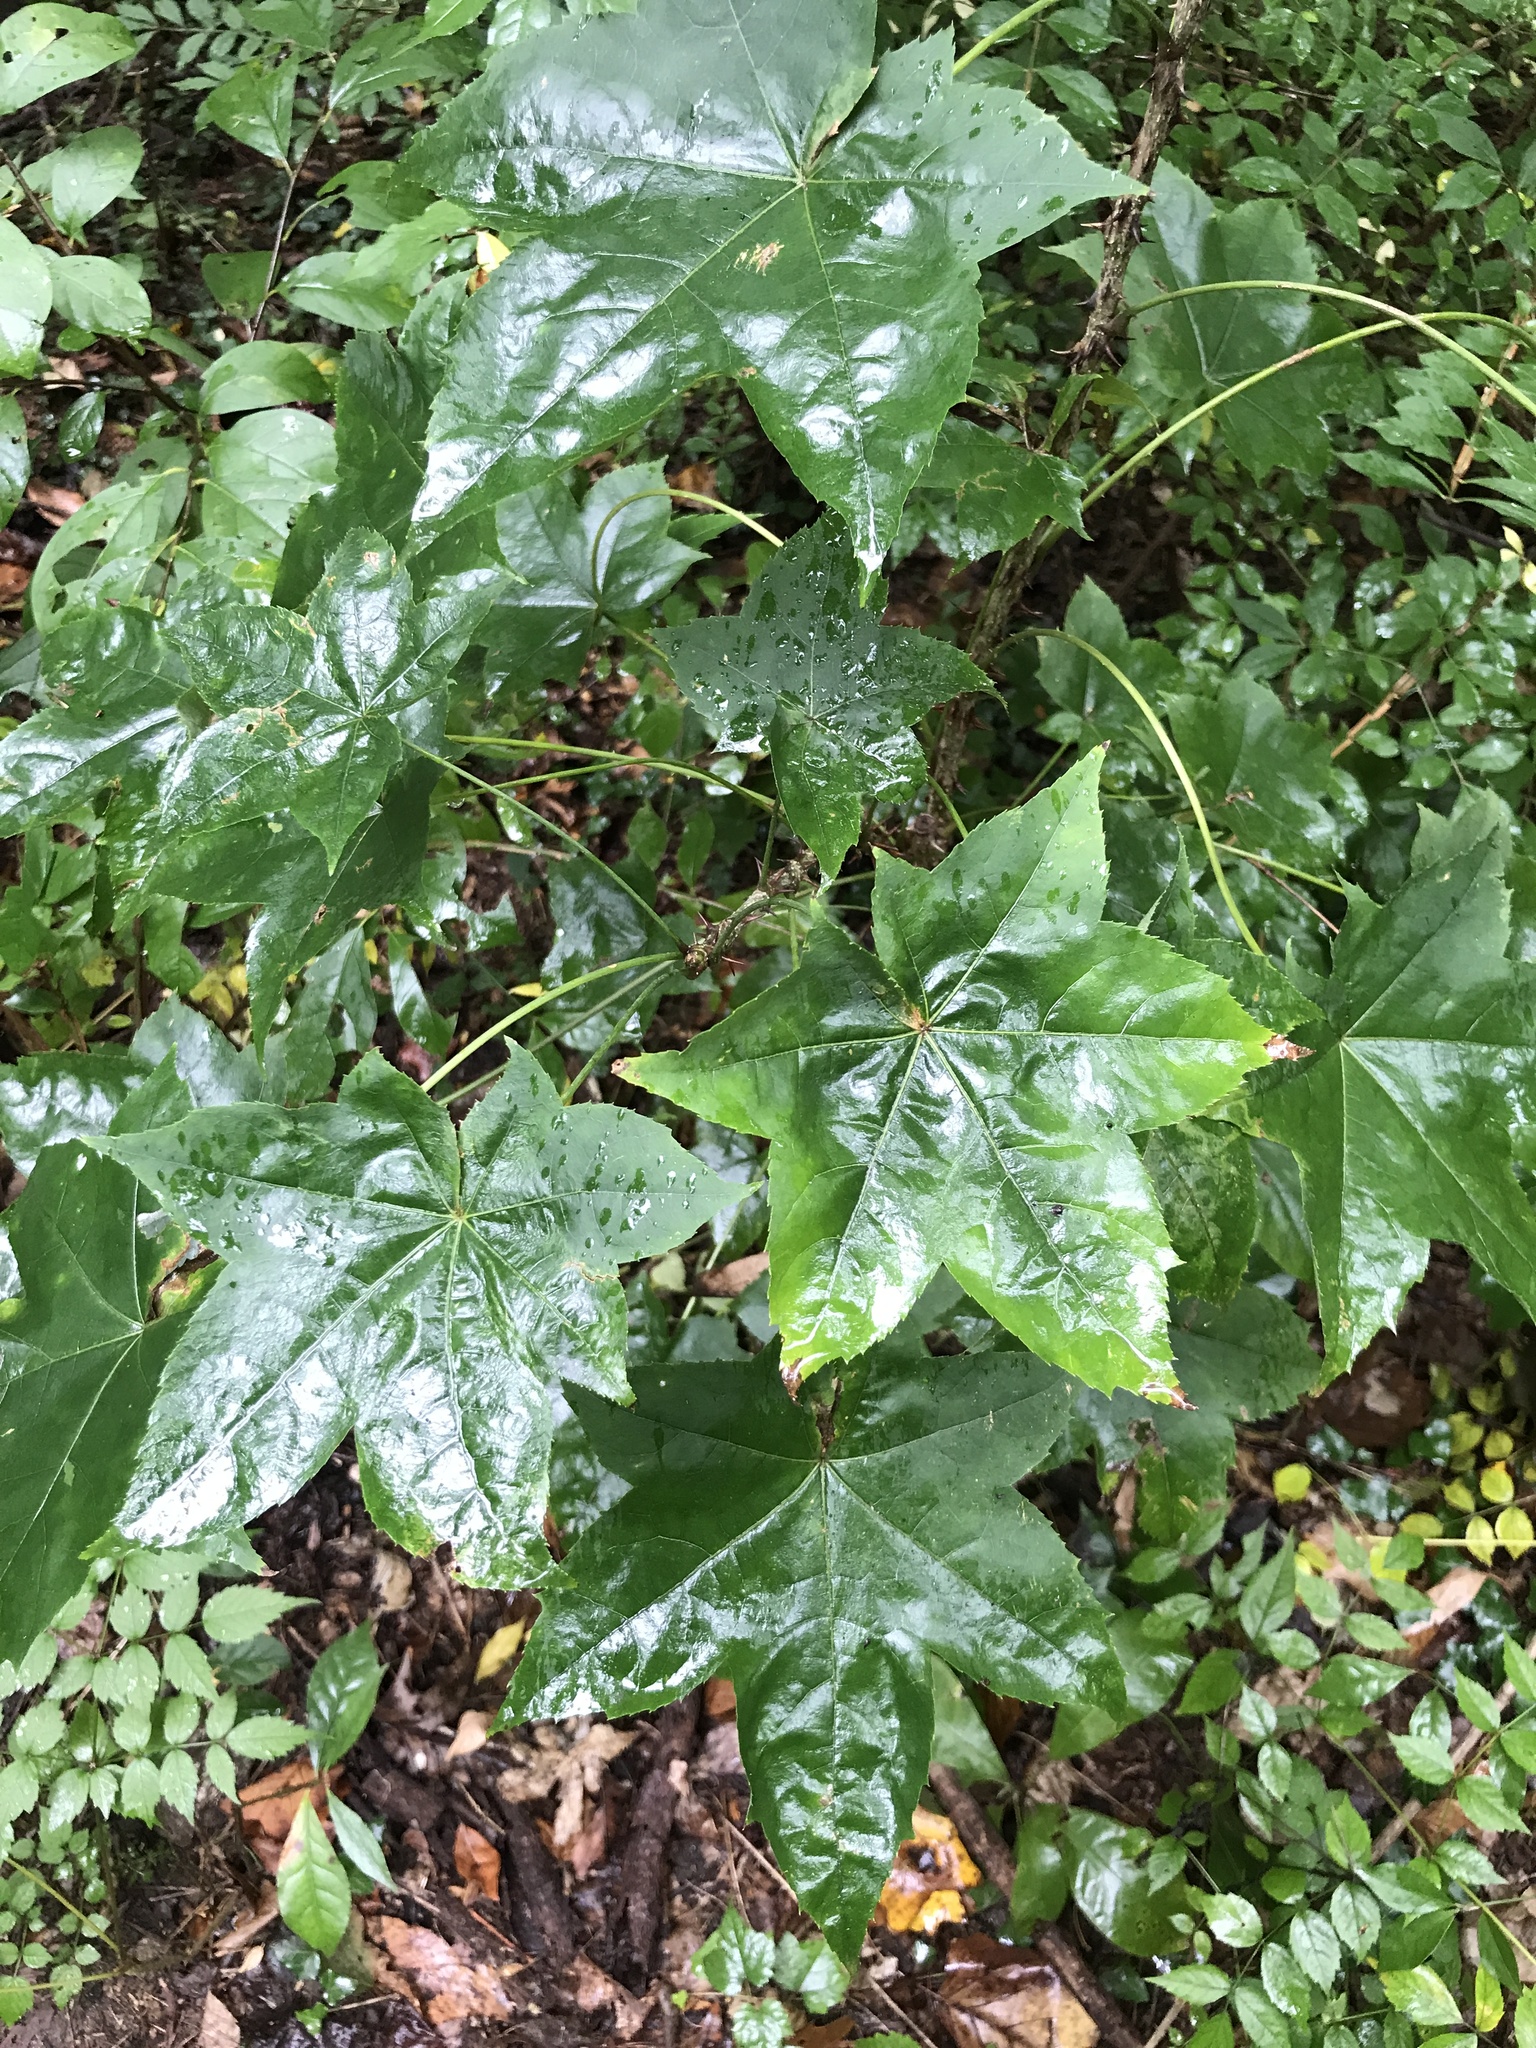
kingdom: Plantae
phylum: Tracheophyta
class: Magnoliopsida
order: Apiales
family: Araliaceae
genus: Kalopanax
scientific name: Kalopanax septemlobus
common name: Castor aralia
